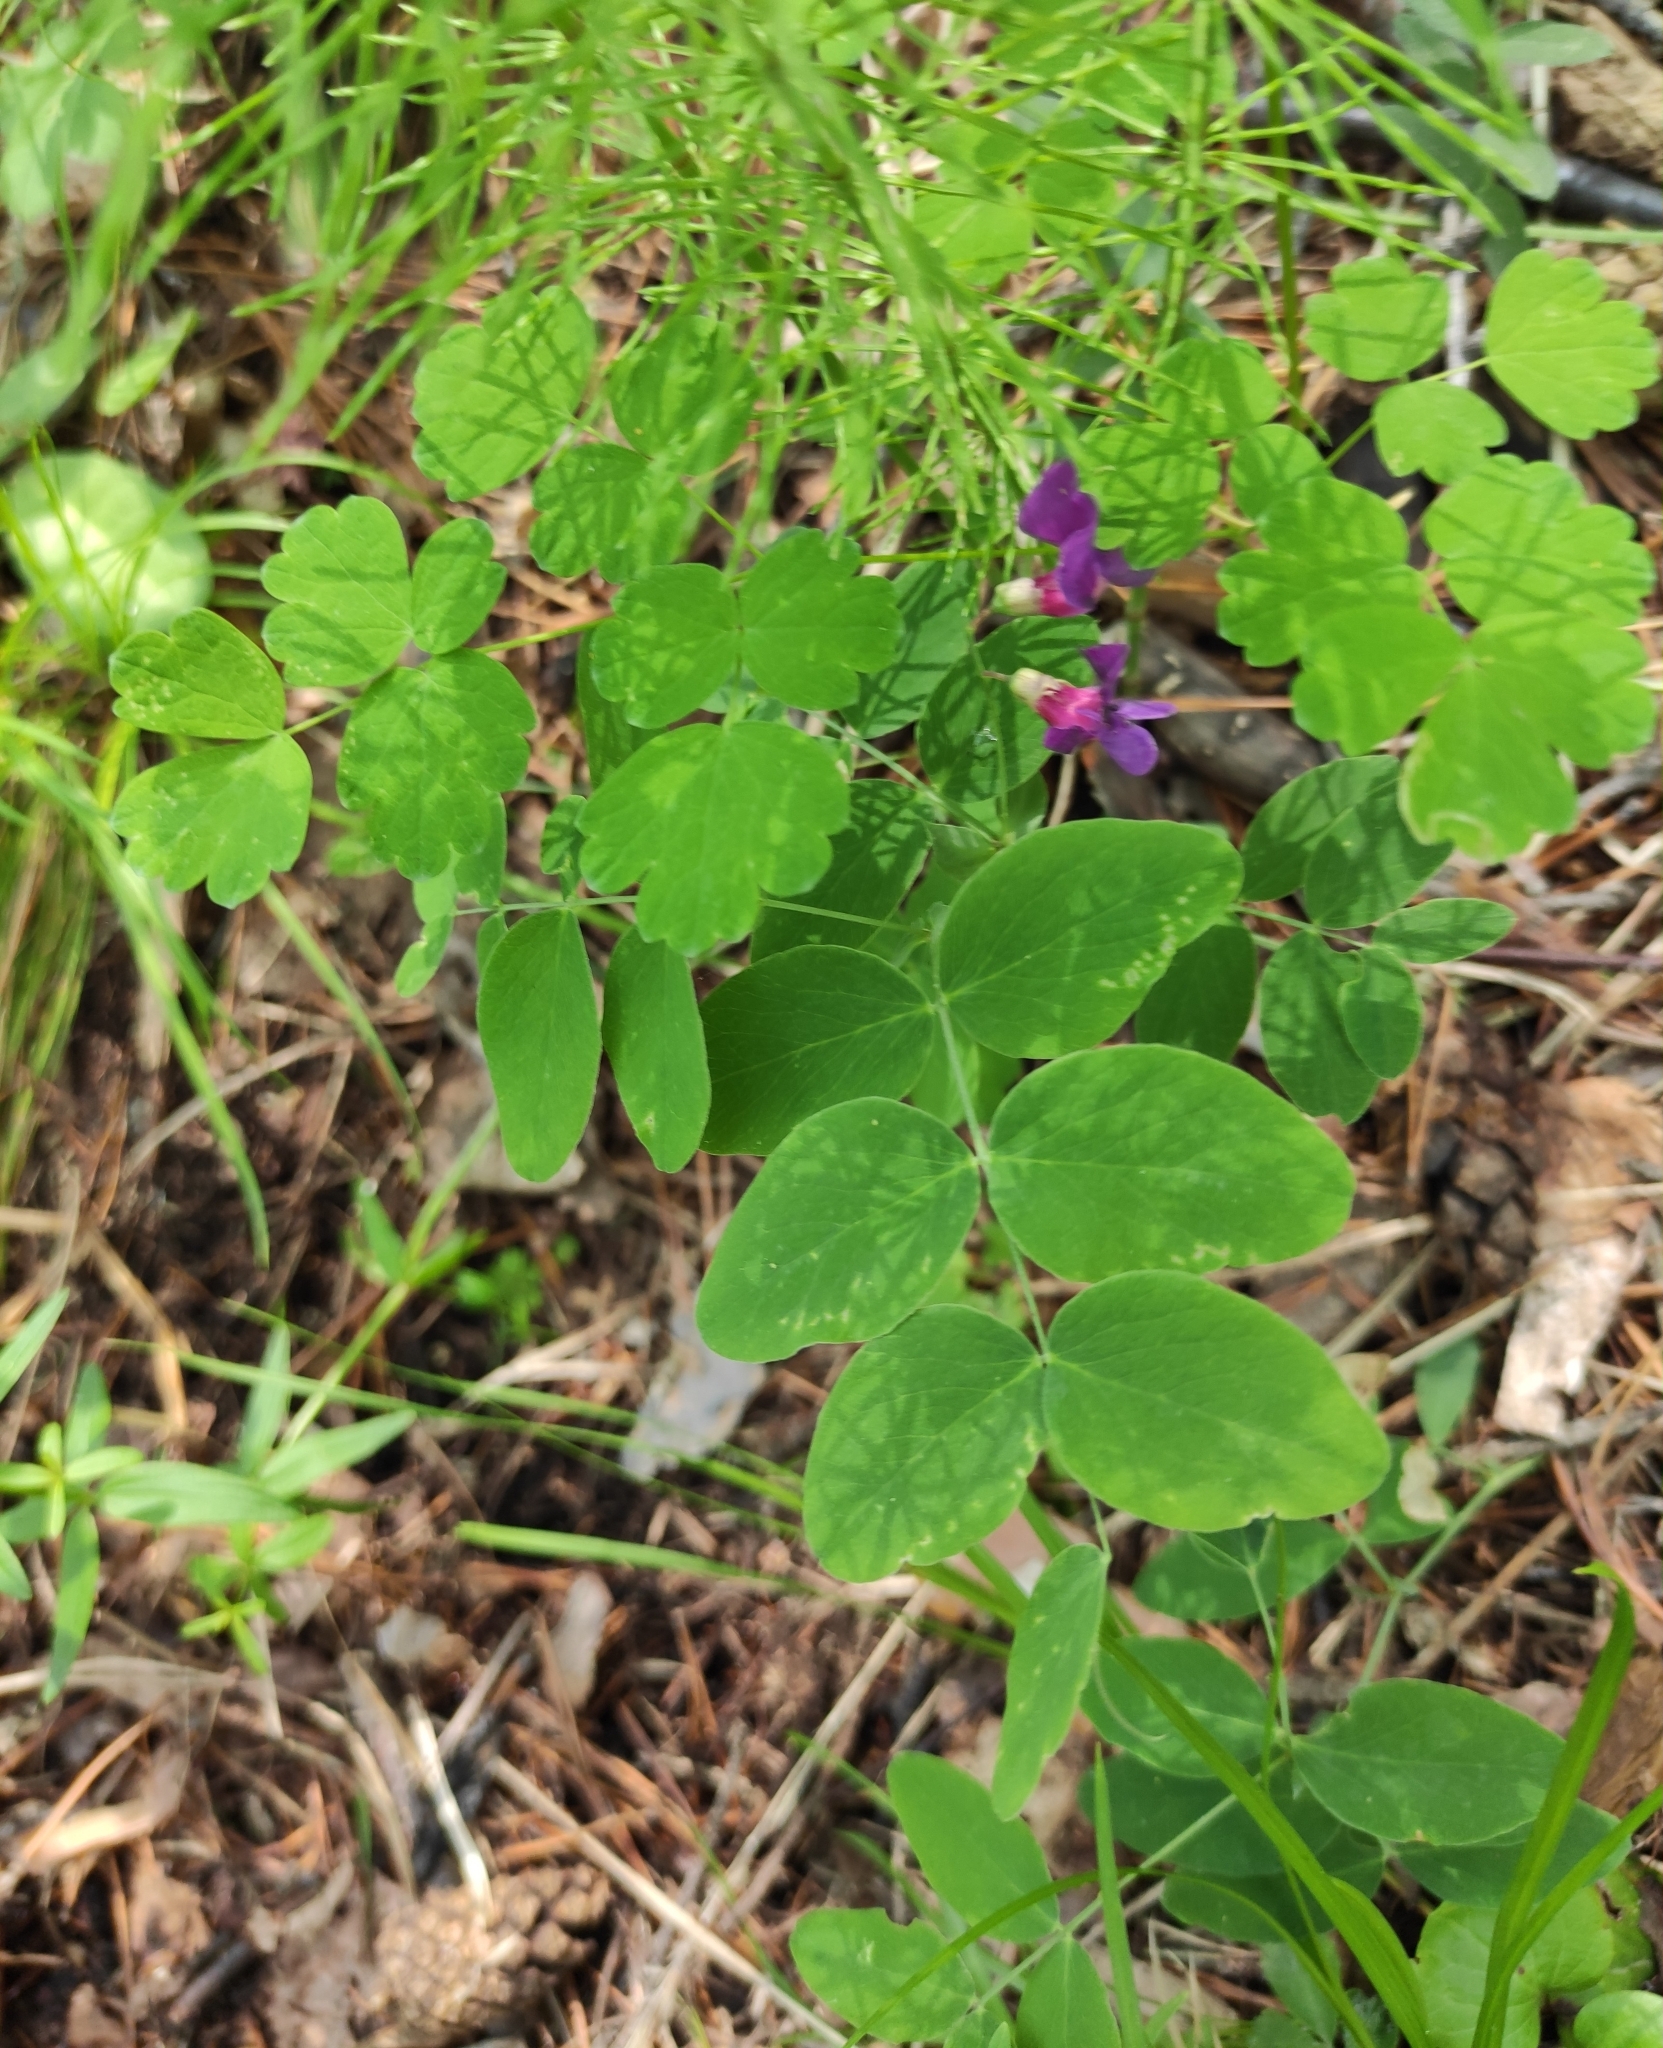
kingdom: Plantae
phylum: Tracheophyta
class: Magnoliopsida
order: Fabales
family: Fabaceae
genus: Lathyrus
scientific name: Lathyrus humilis
